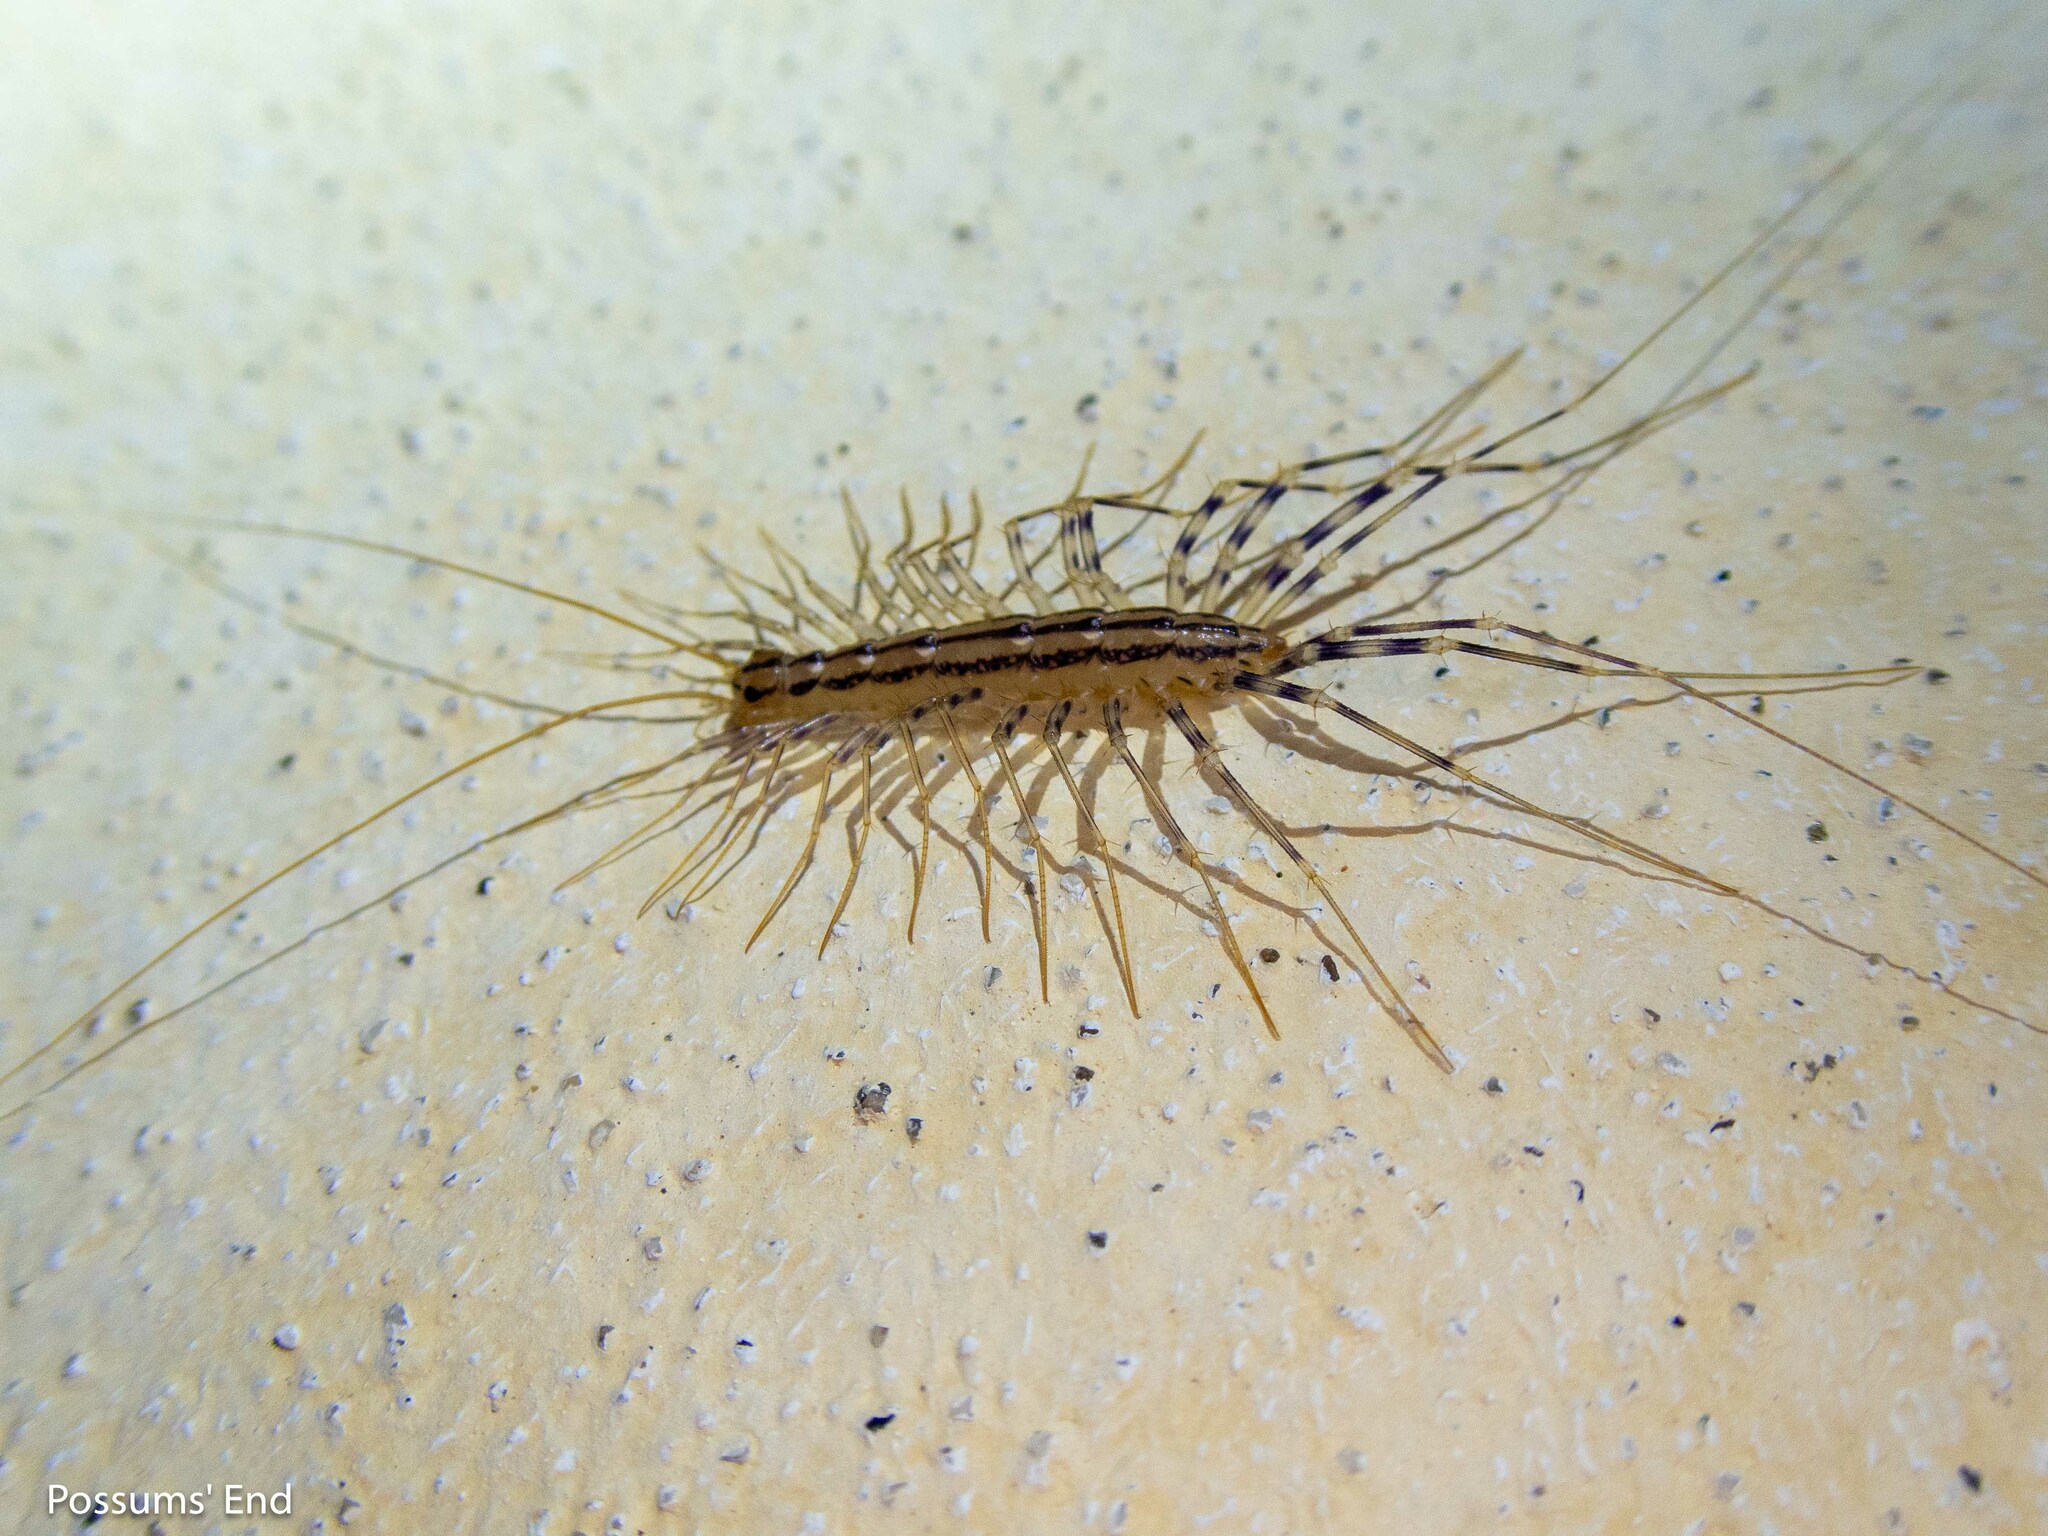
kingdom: Animalia
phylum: Arthropoda
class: Chilopoda
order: Scutigeromorpha
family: Scutigeridae
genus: Scutigera
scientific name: Scutigera coleoptrata
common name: House centipede
